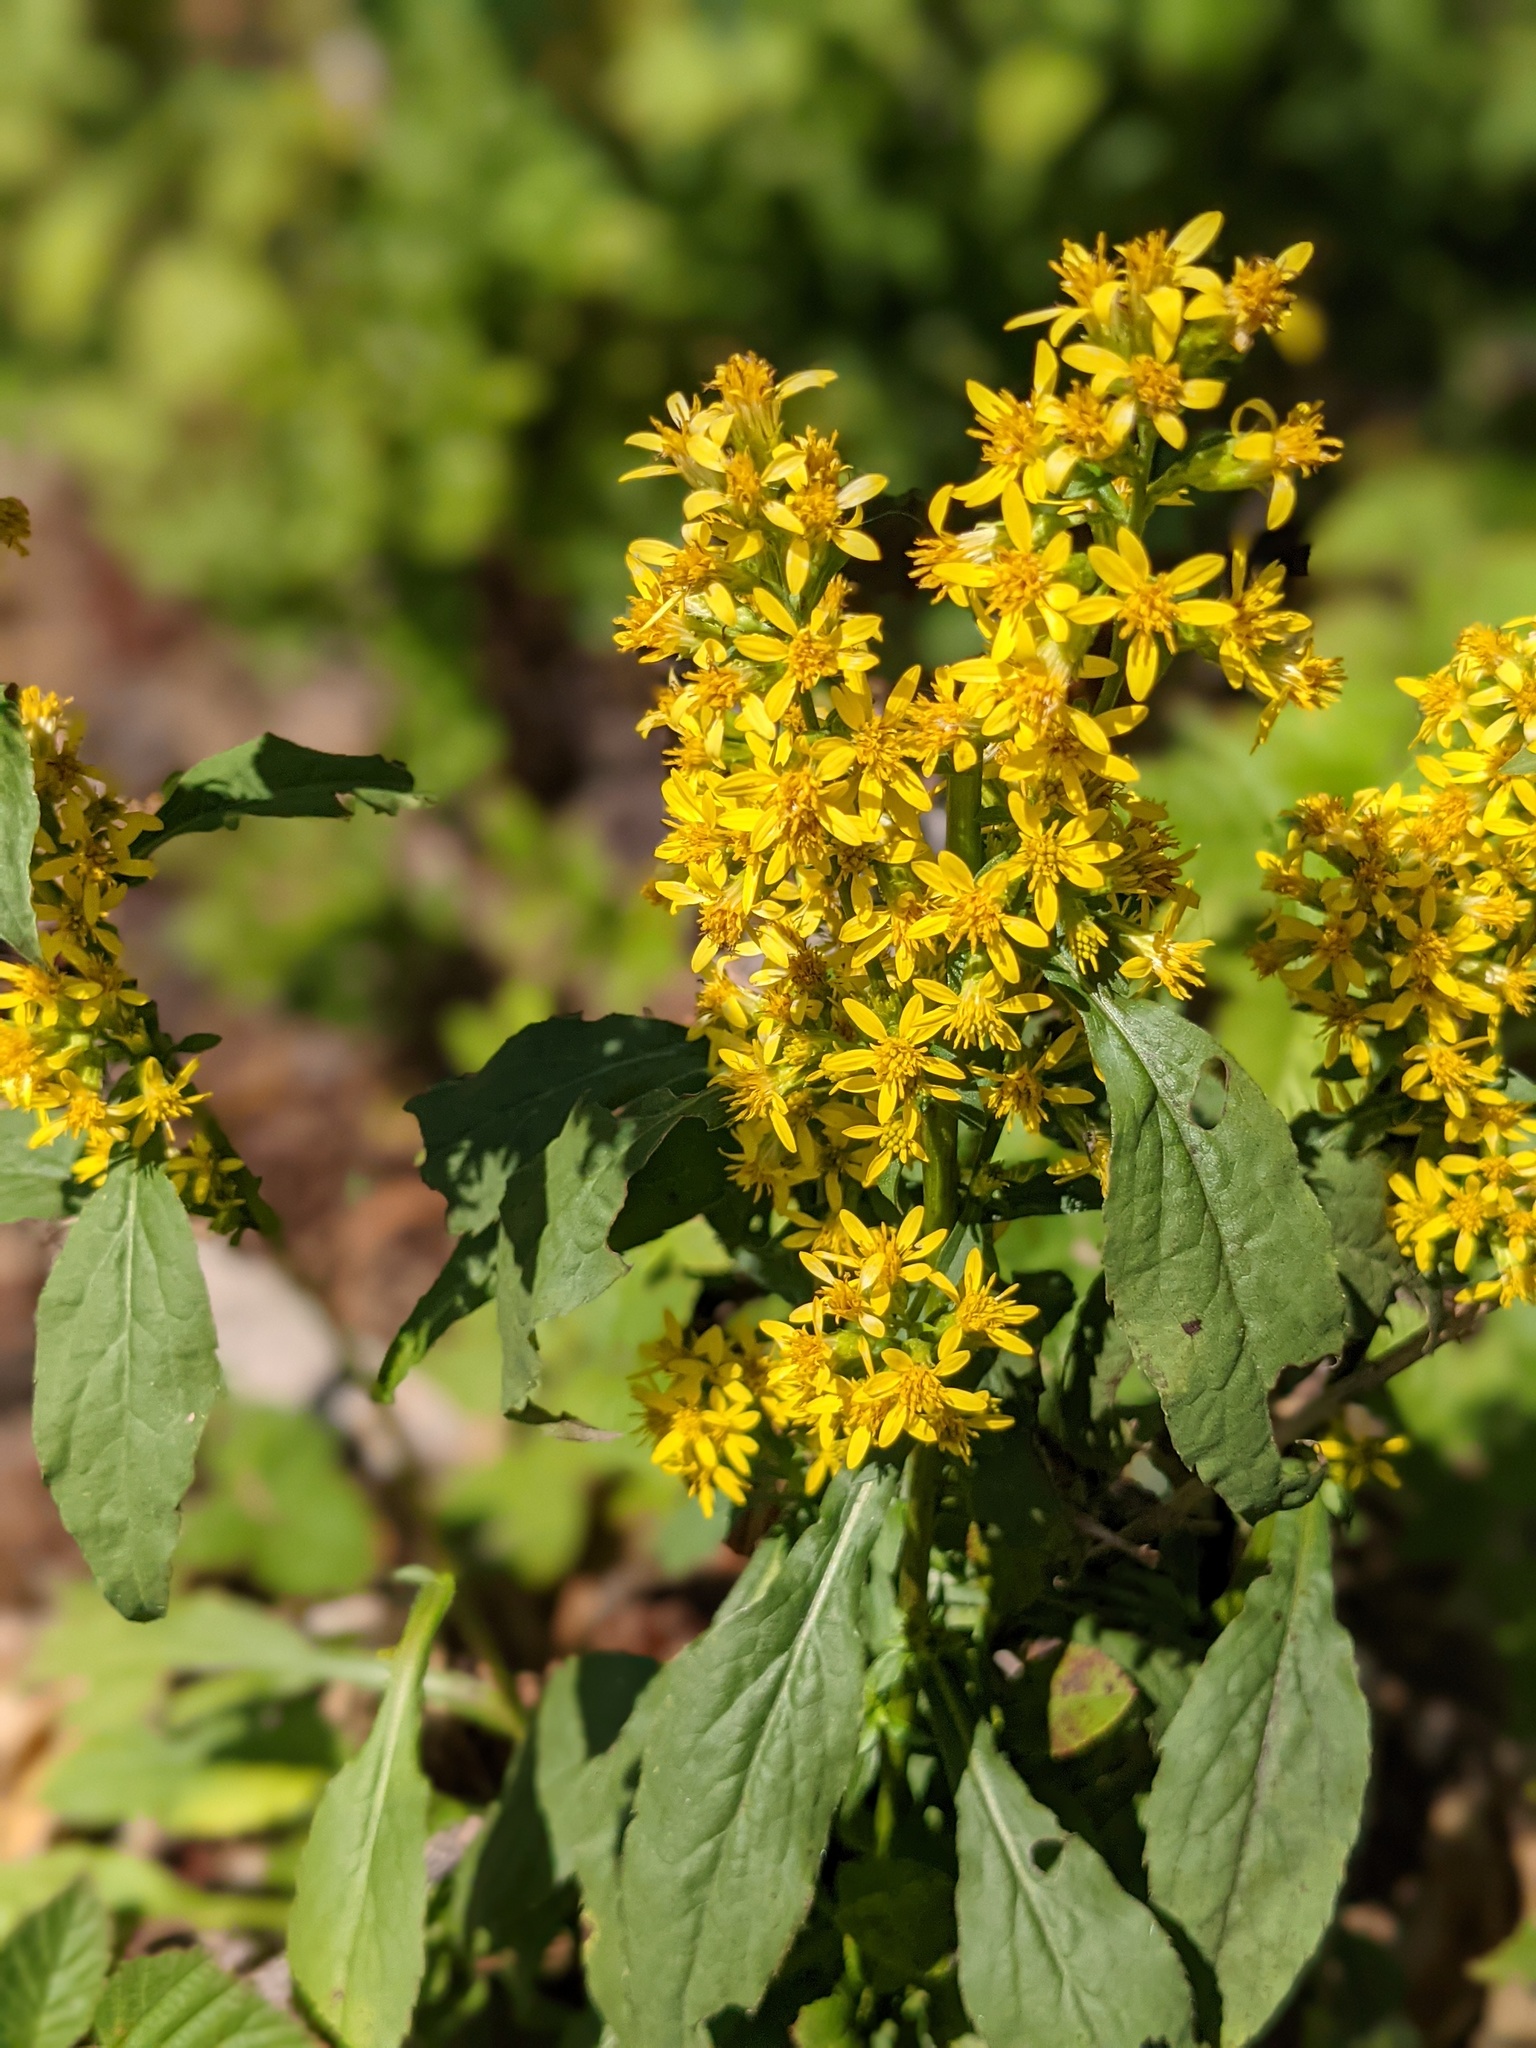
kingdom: Plantae
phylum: Tracheophyta
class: Magnoliopsida
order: Asterales
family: Asteraceae
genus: Solidago
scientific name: Solidago virgaurea
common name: Goldenrod
